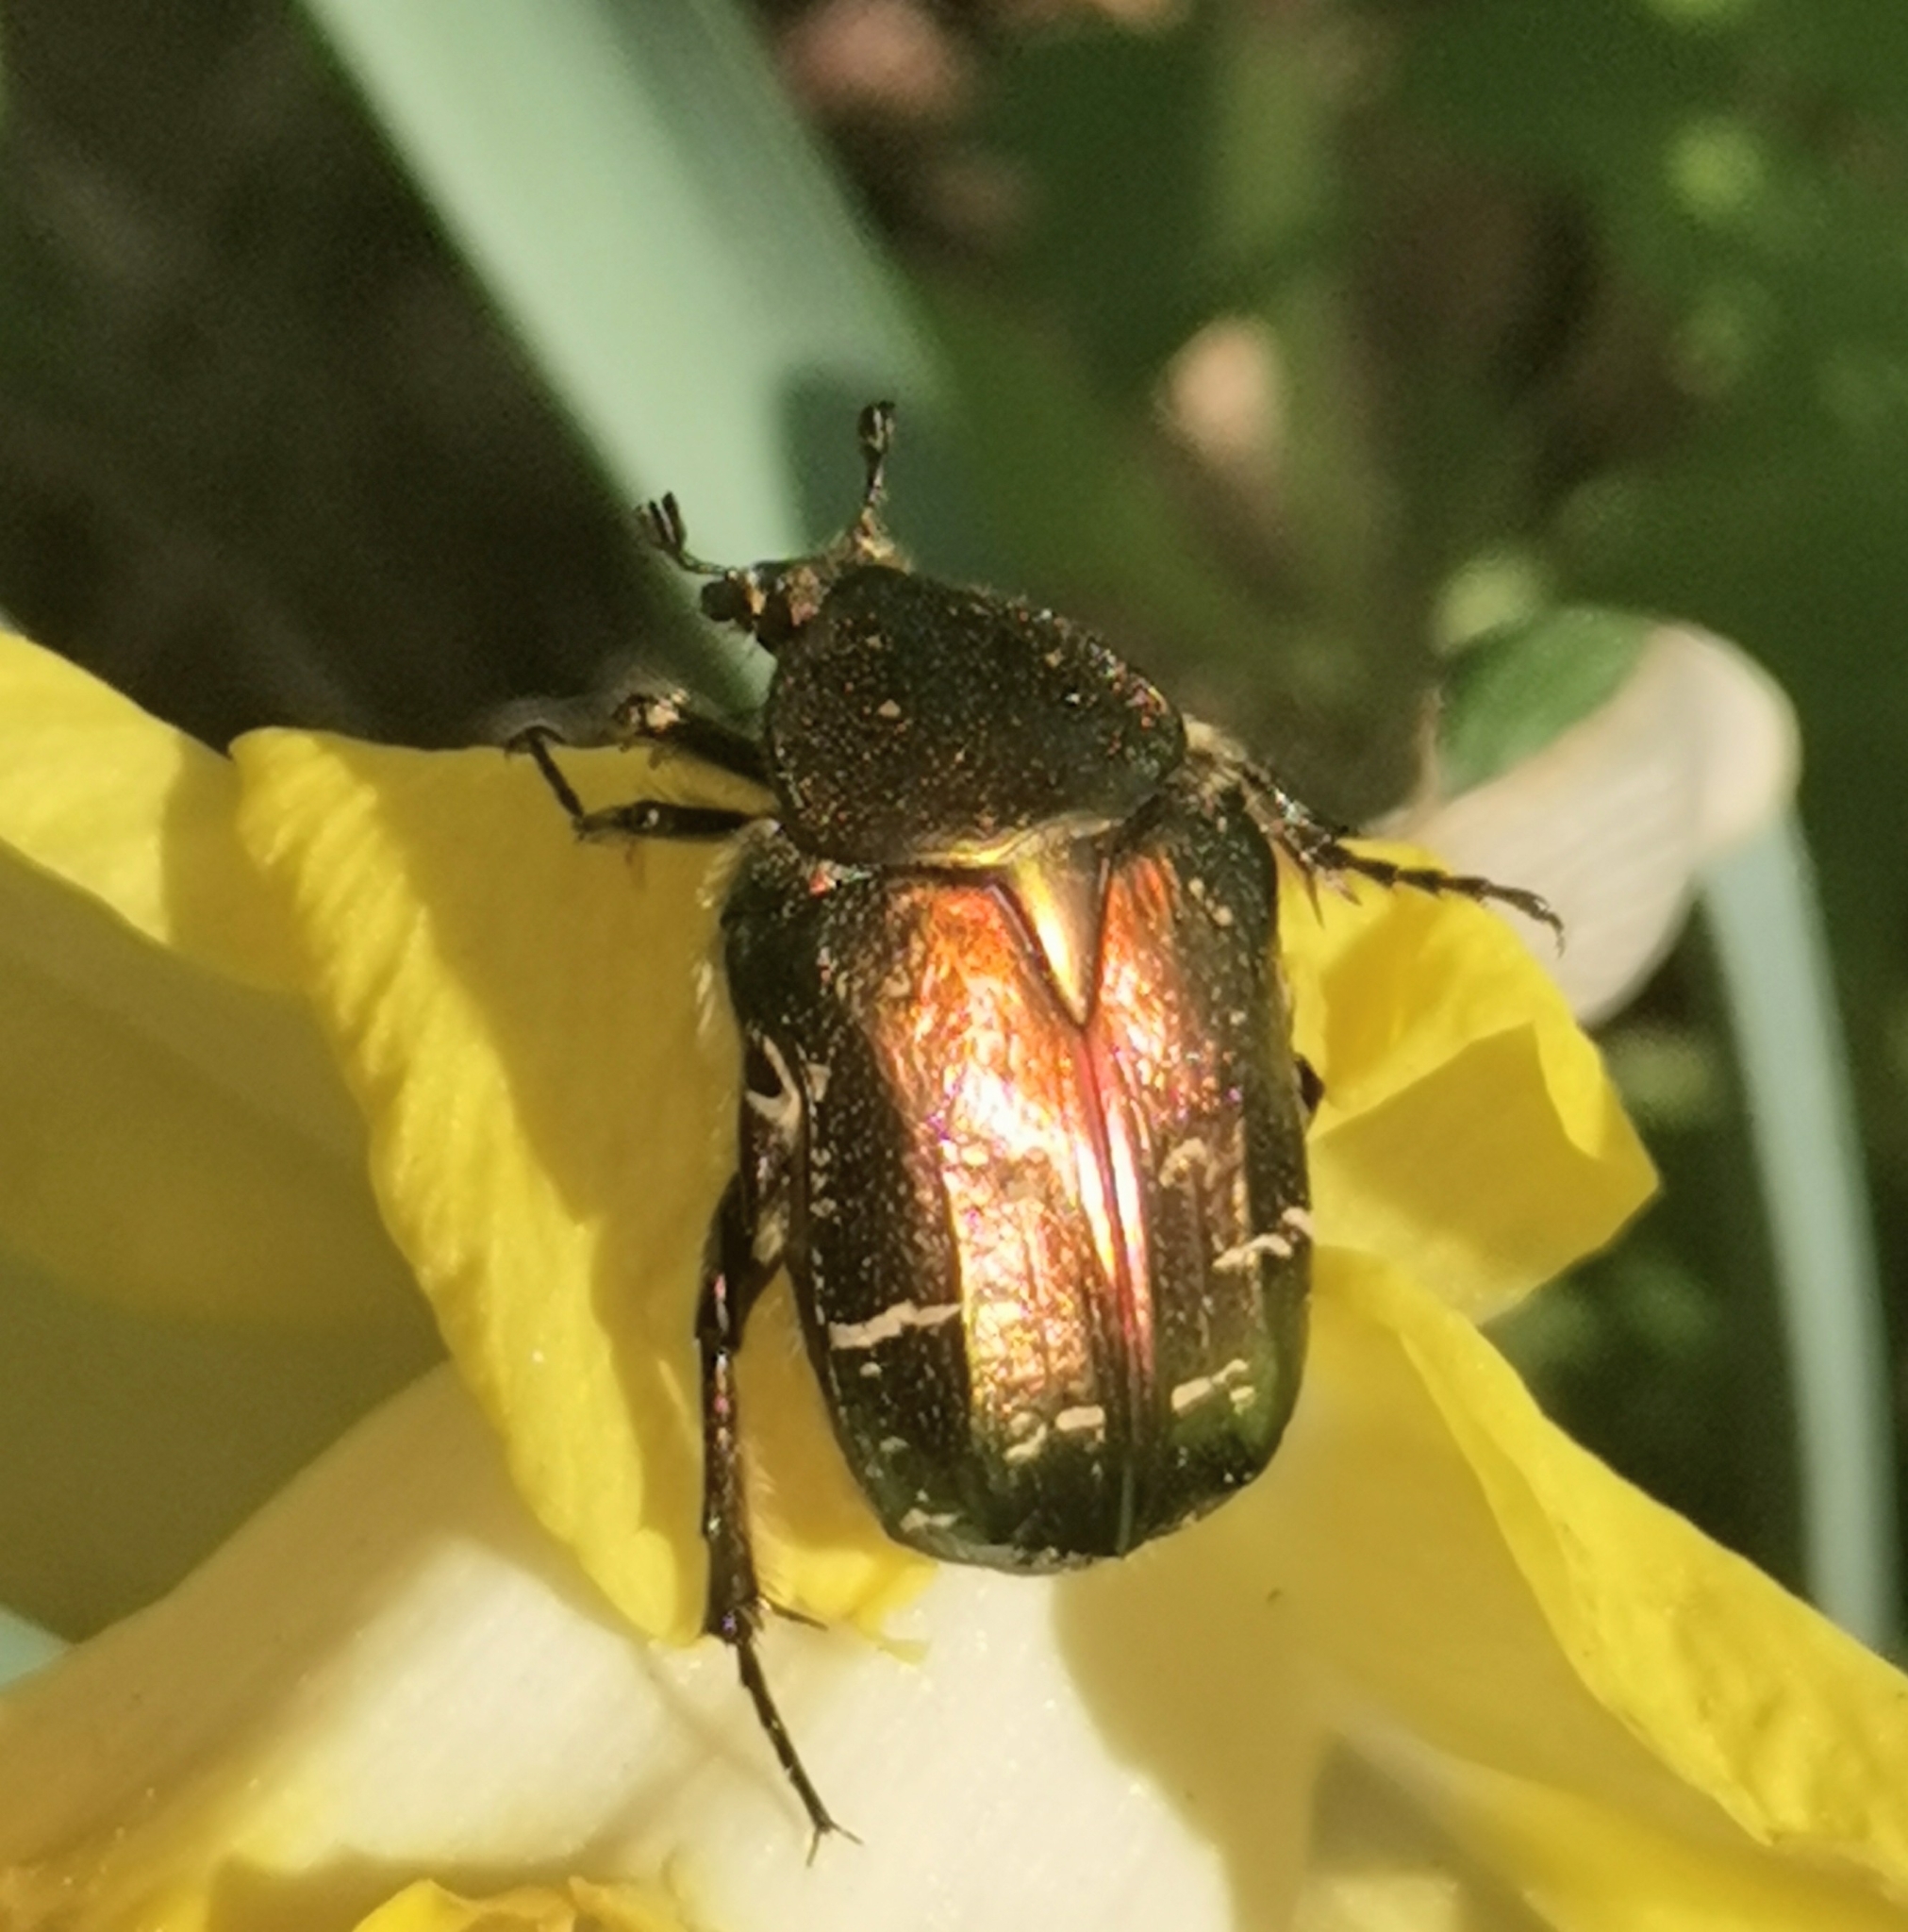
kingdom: Animalia
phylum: Arthropoda
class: Insecta
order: Coleoptera
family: Scarabaeidae
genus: Cetonia
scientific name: Cetonia aurata
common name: Rose chafer
